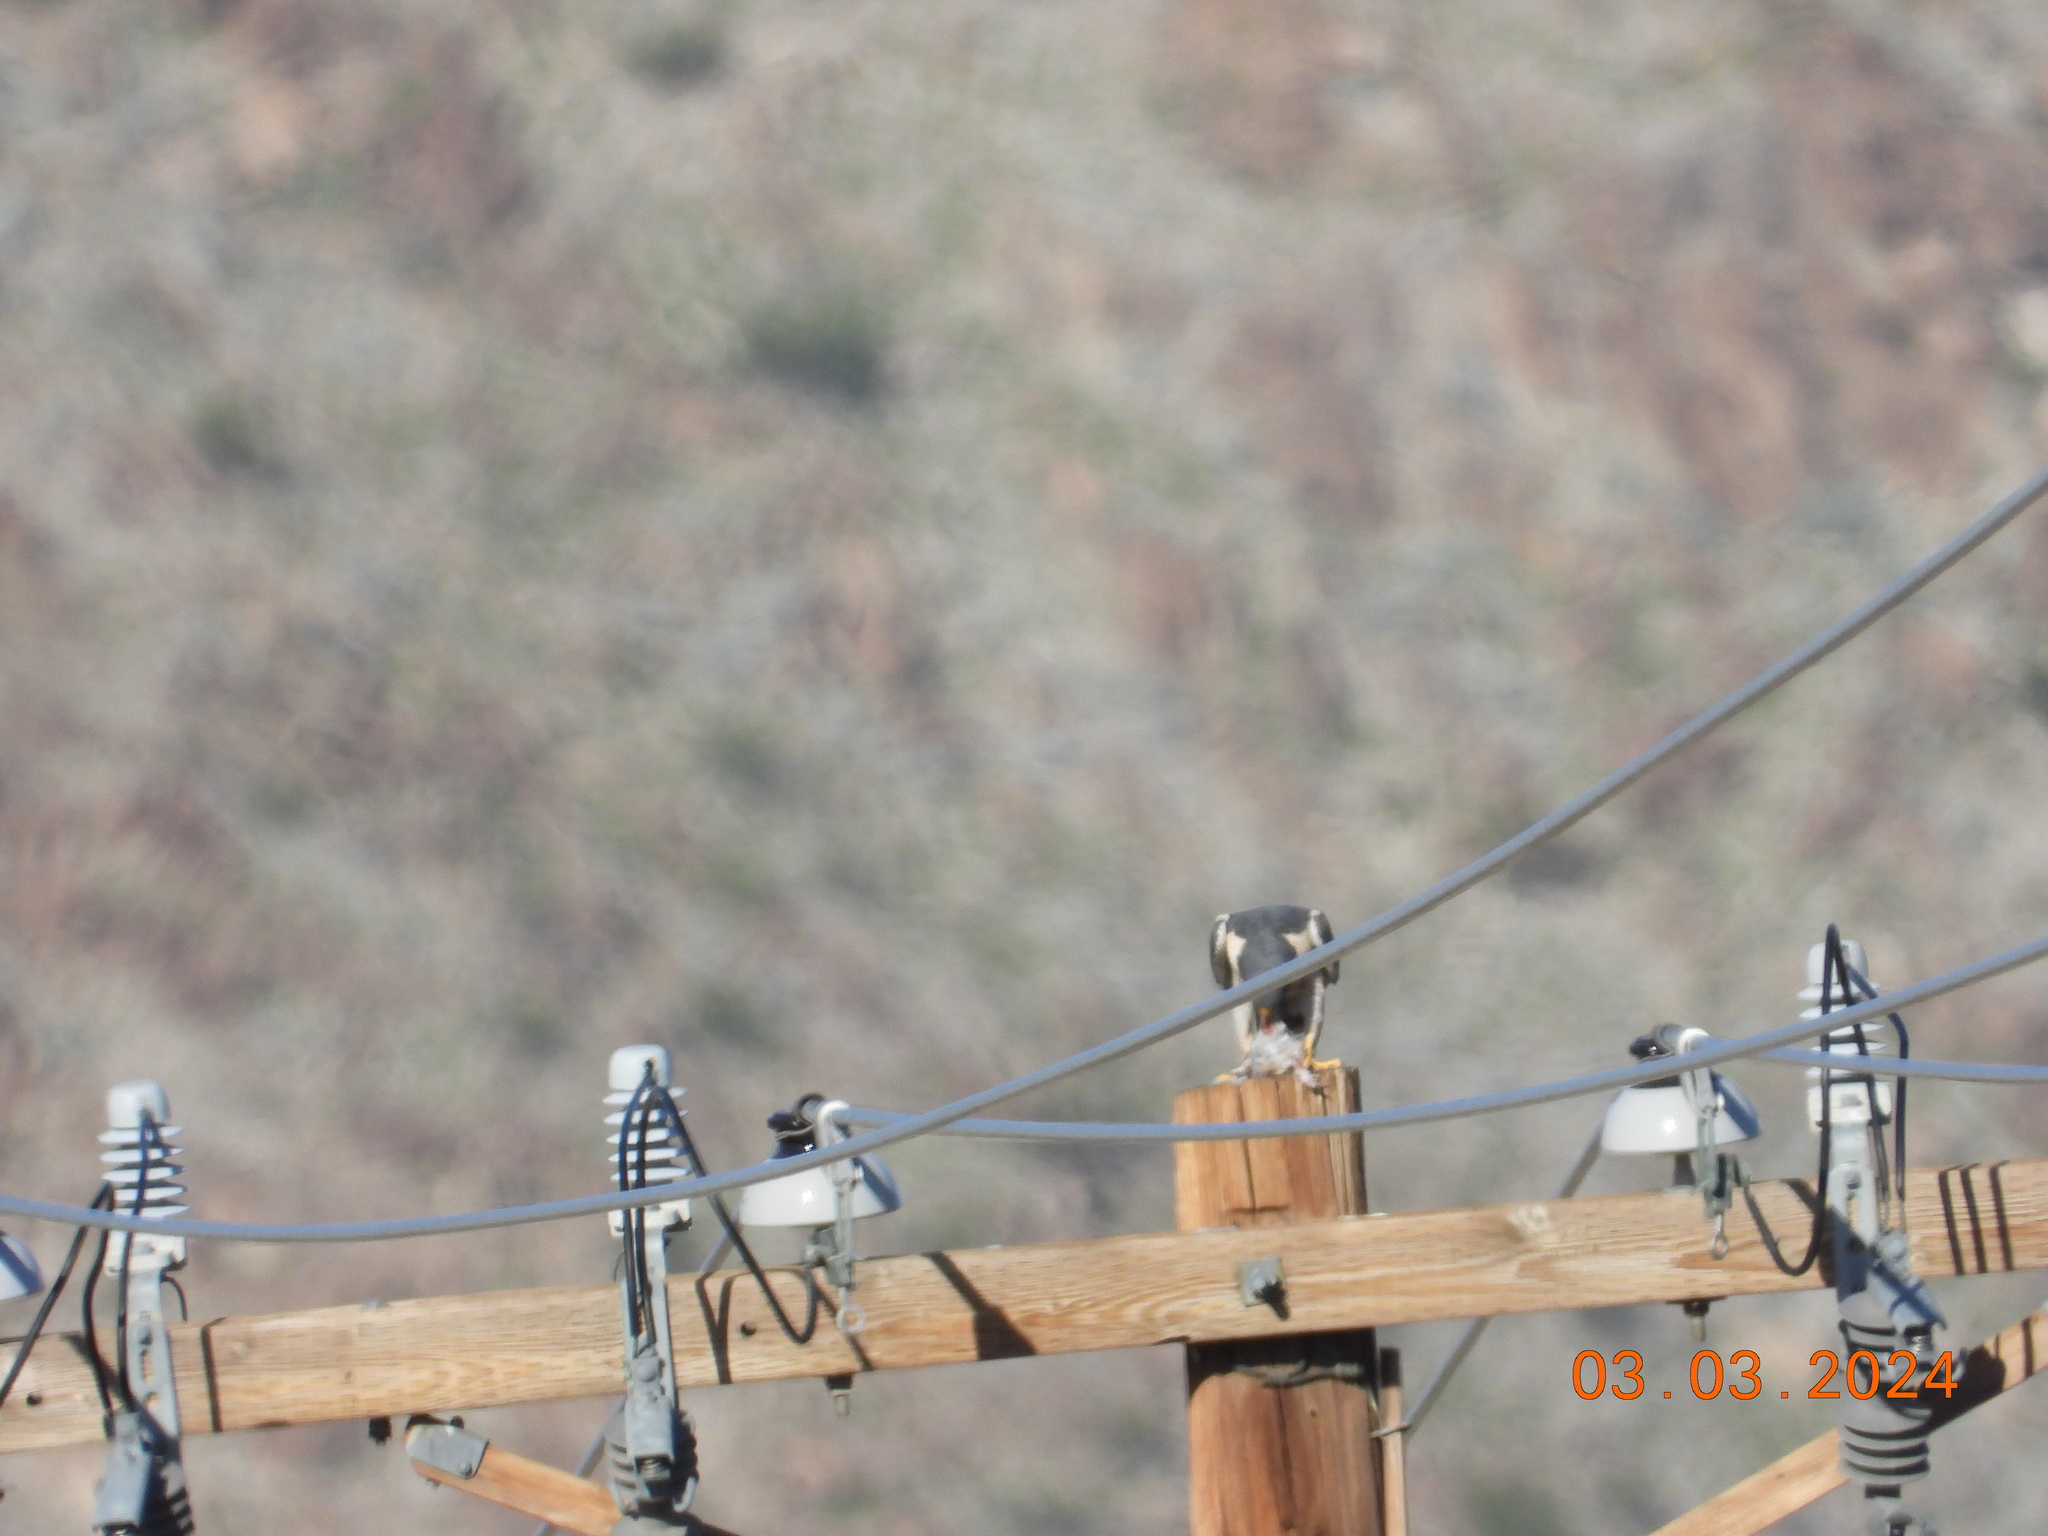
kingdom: Animalia
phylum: Chordata
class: Aves
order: Falconiformes
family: Falconidae
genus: Falco
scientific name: Falco peregrinus
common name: Peregrine falcon
